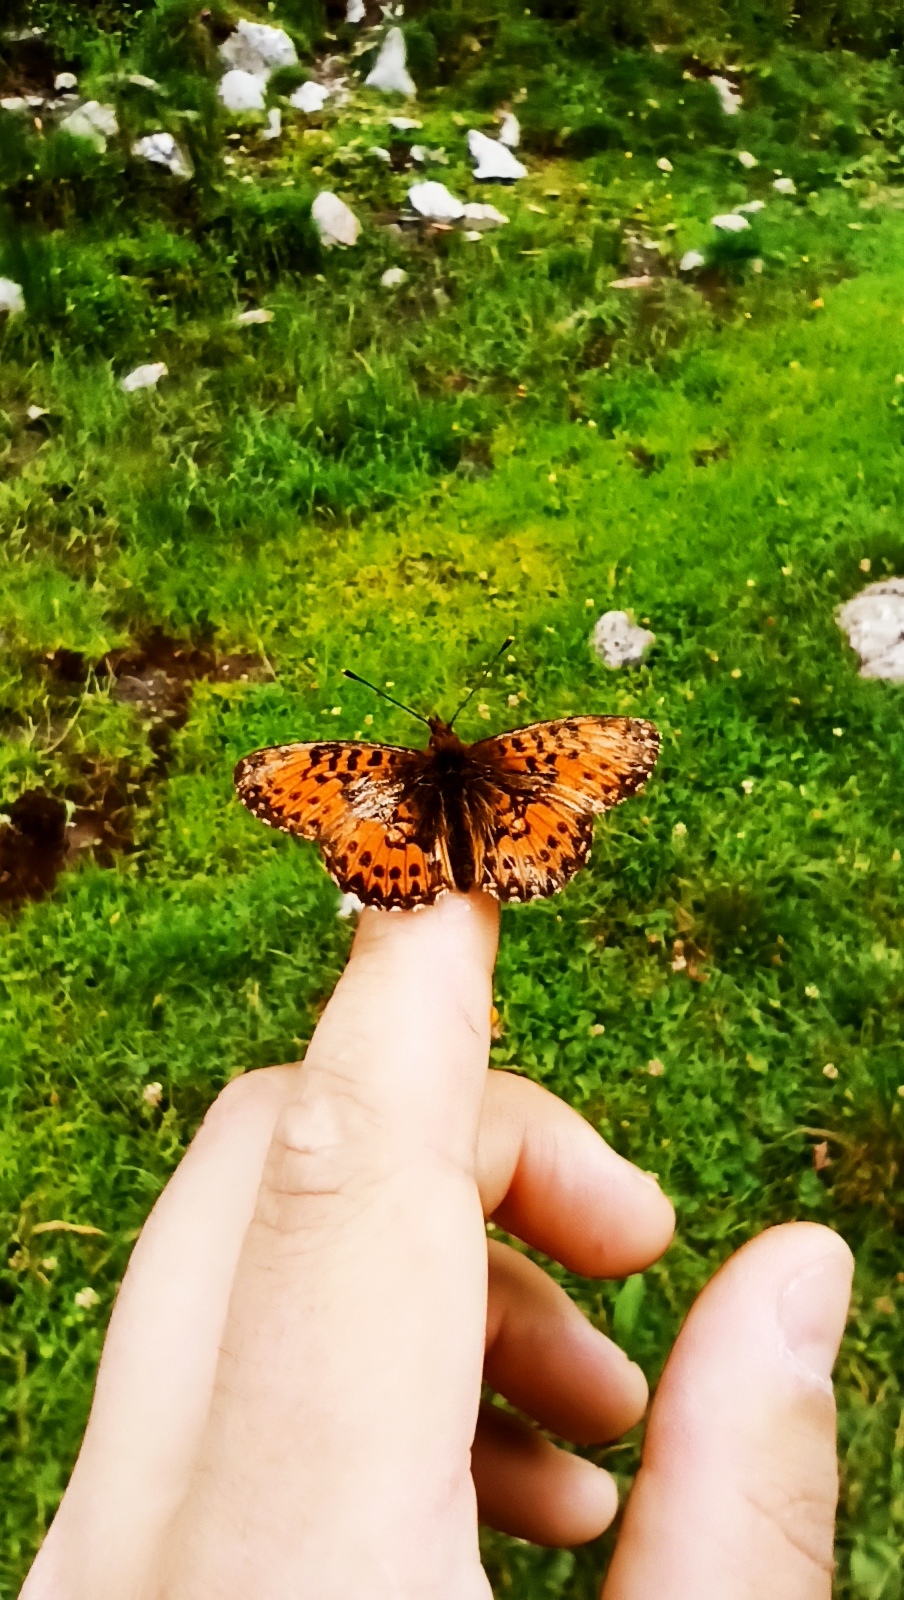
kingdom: Animalia
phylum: Arthropoda
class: Insecta
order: Lepidoptera
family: Nymphalidae
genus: Boloria
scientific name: Boloria titania
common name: Titania's fritillary
